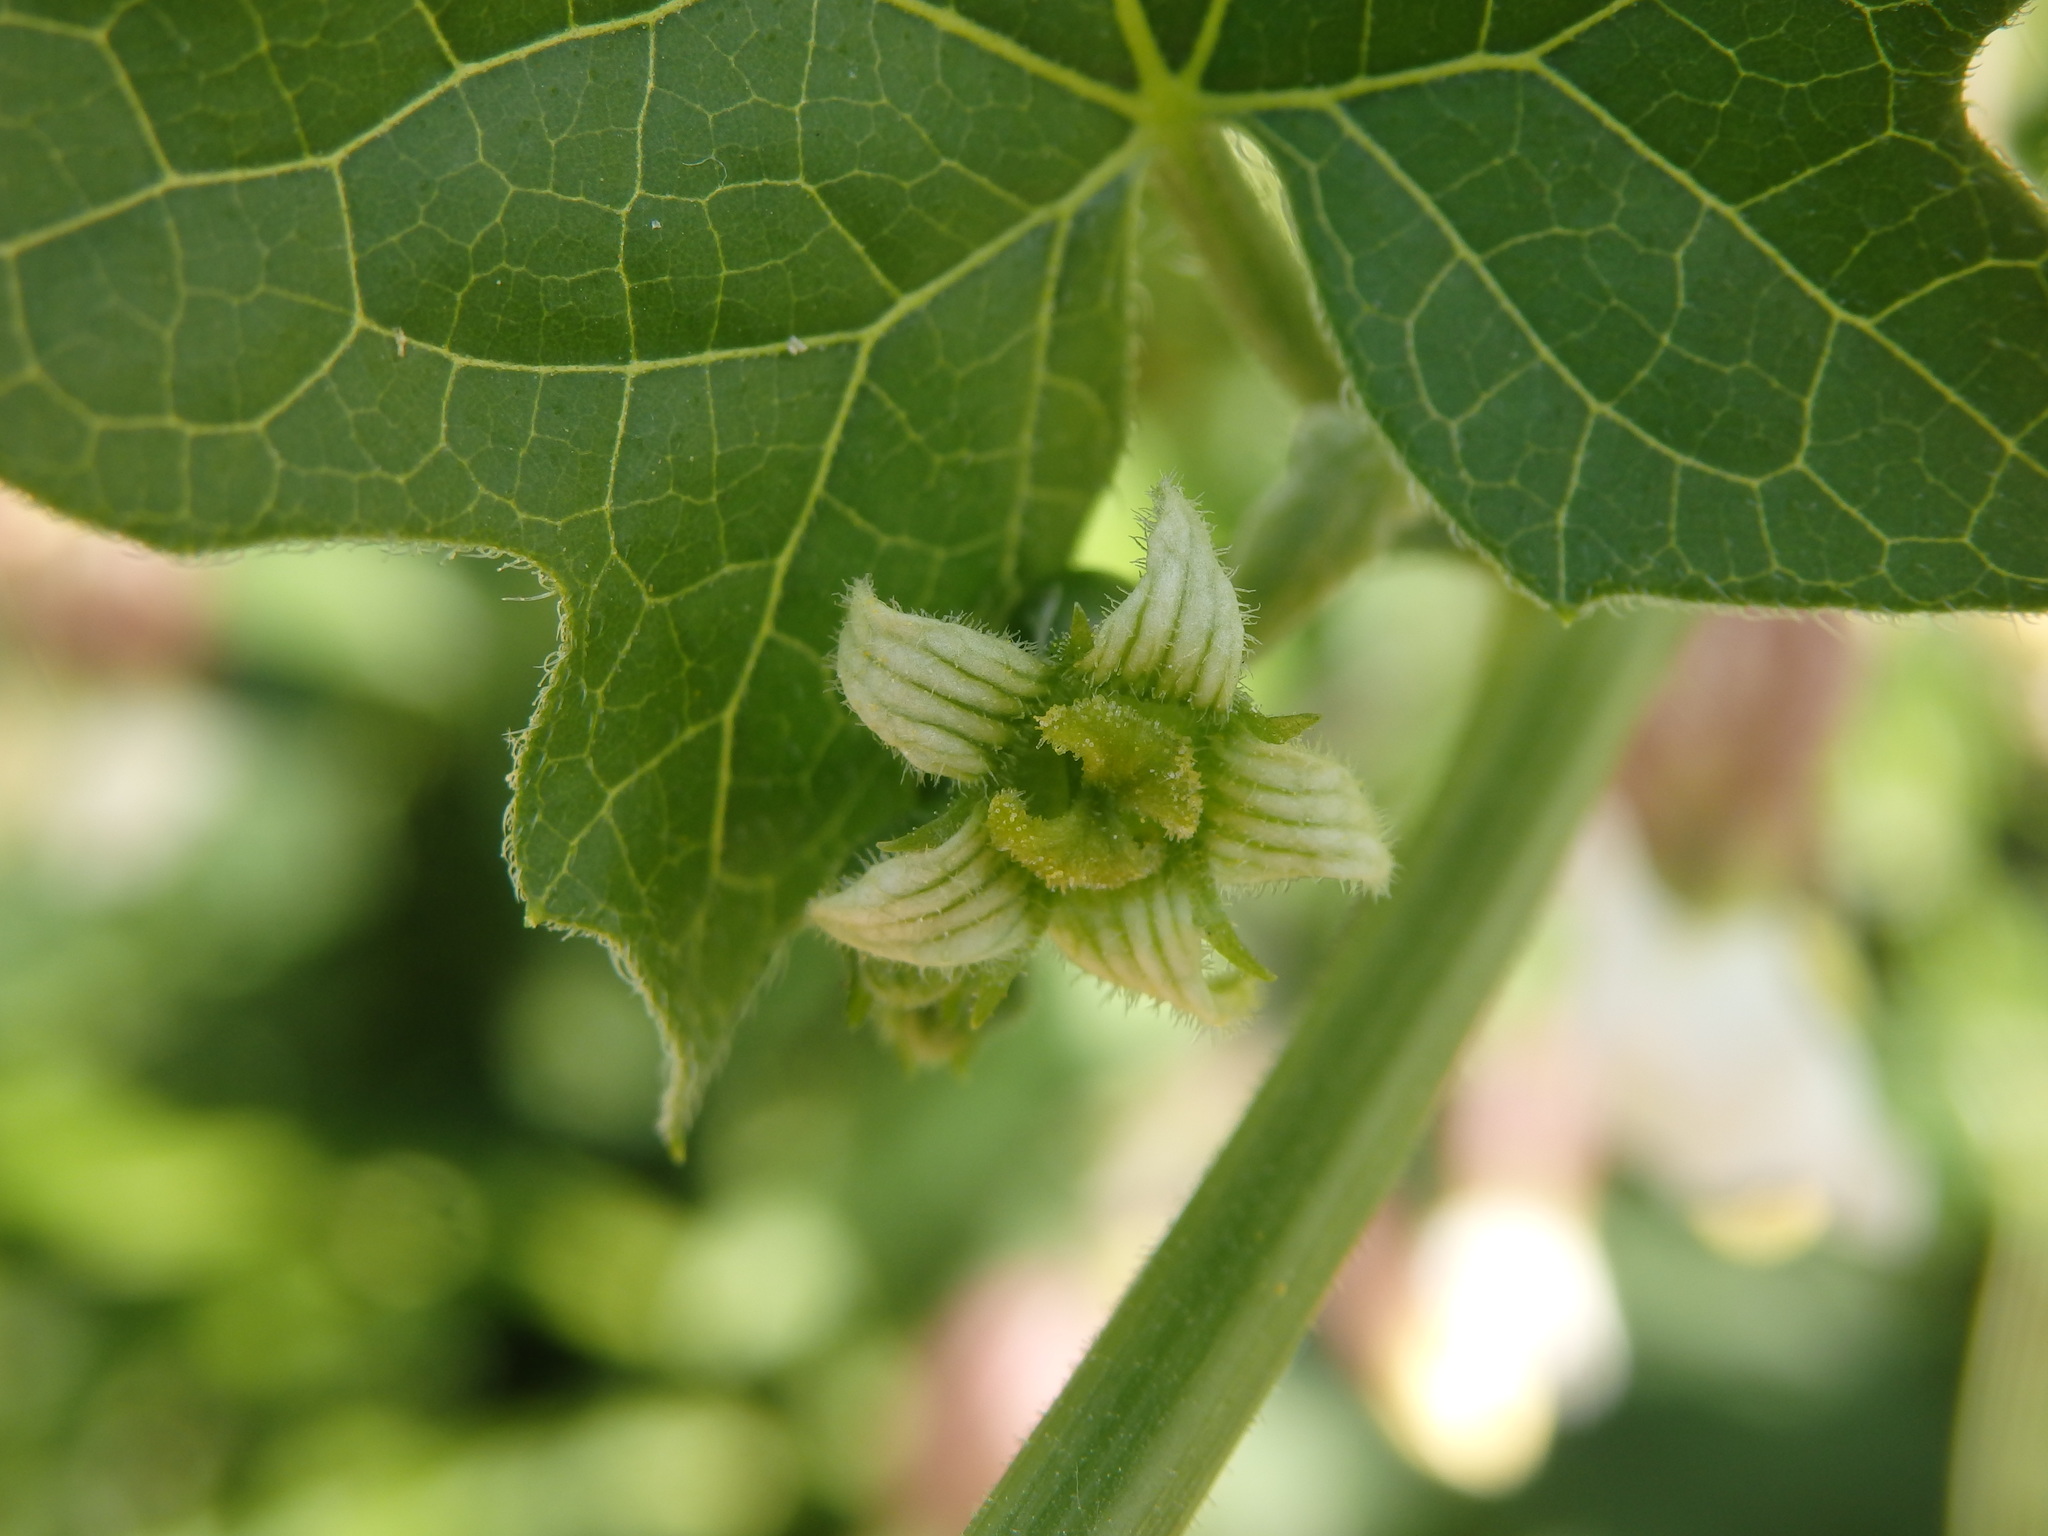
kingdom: Plantae
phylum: Tracheophyta
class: Magnoliopsida
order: Cucurbitales
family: Cucurbitaceae
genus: Bryonia
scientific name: Bryonia cretica
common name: Cretan bryony
